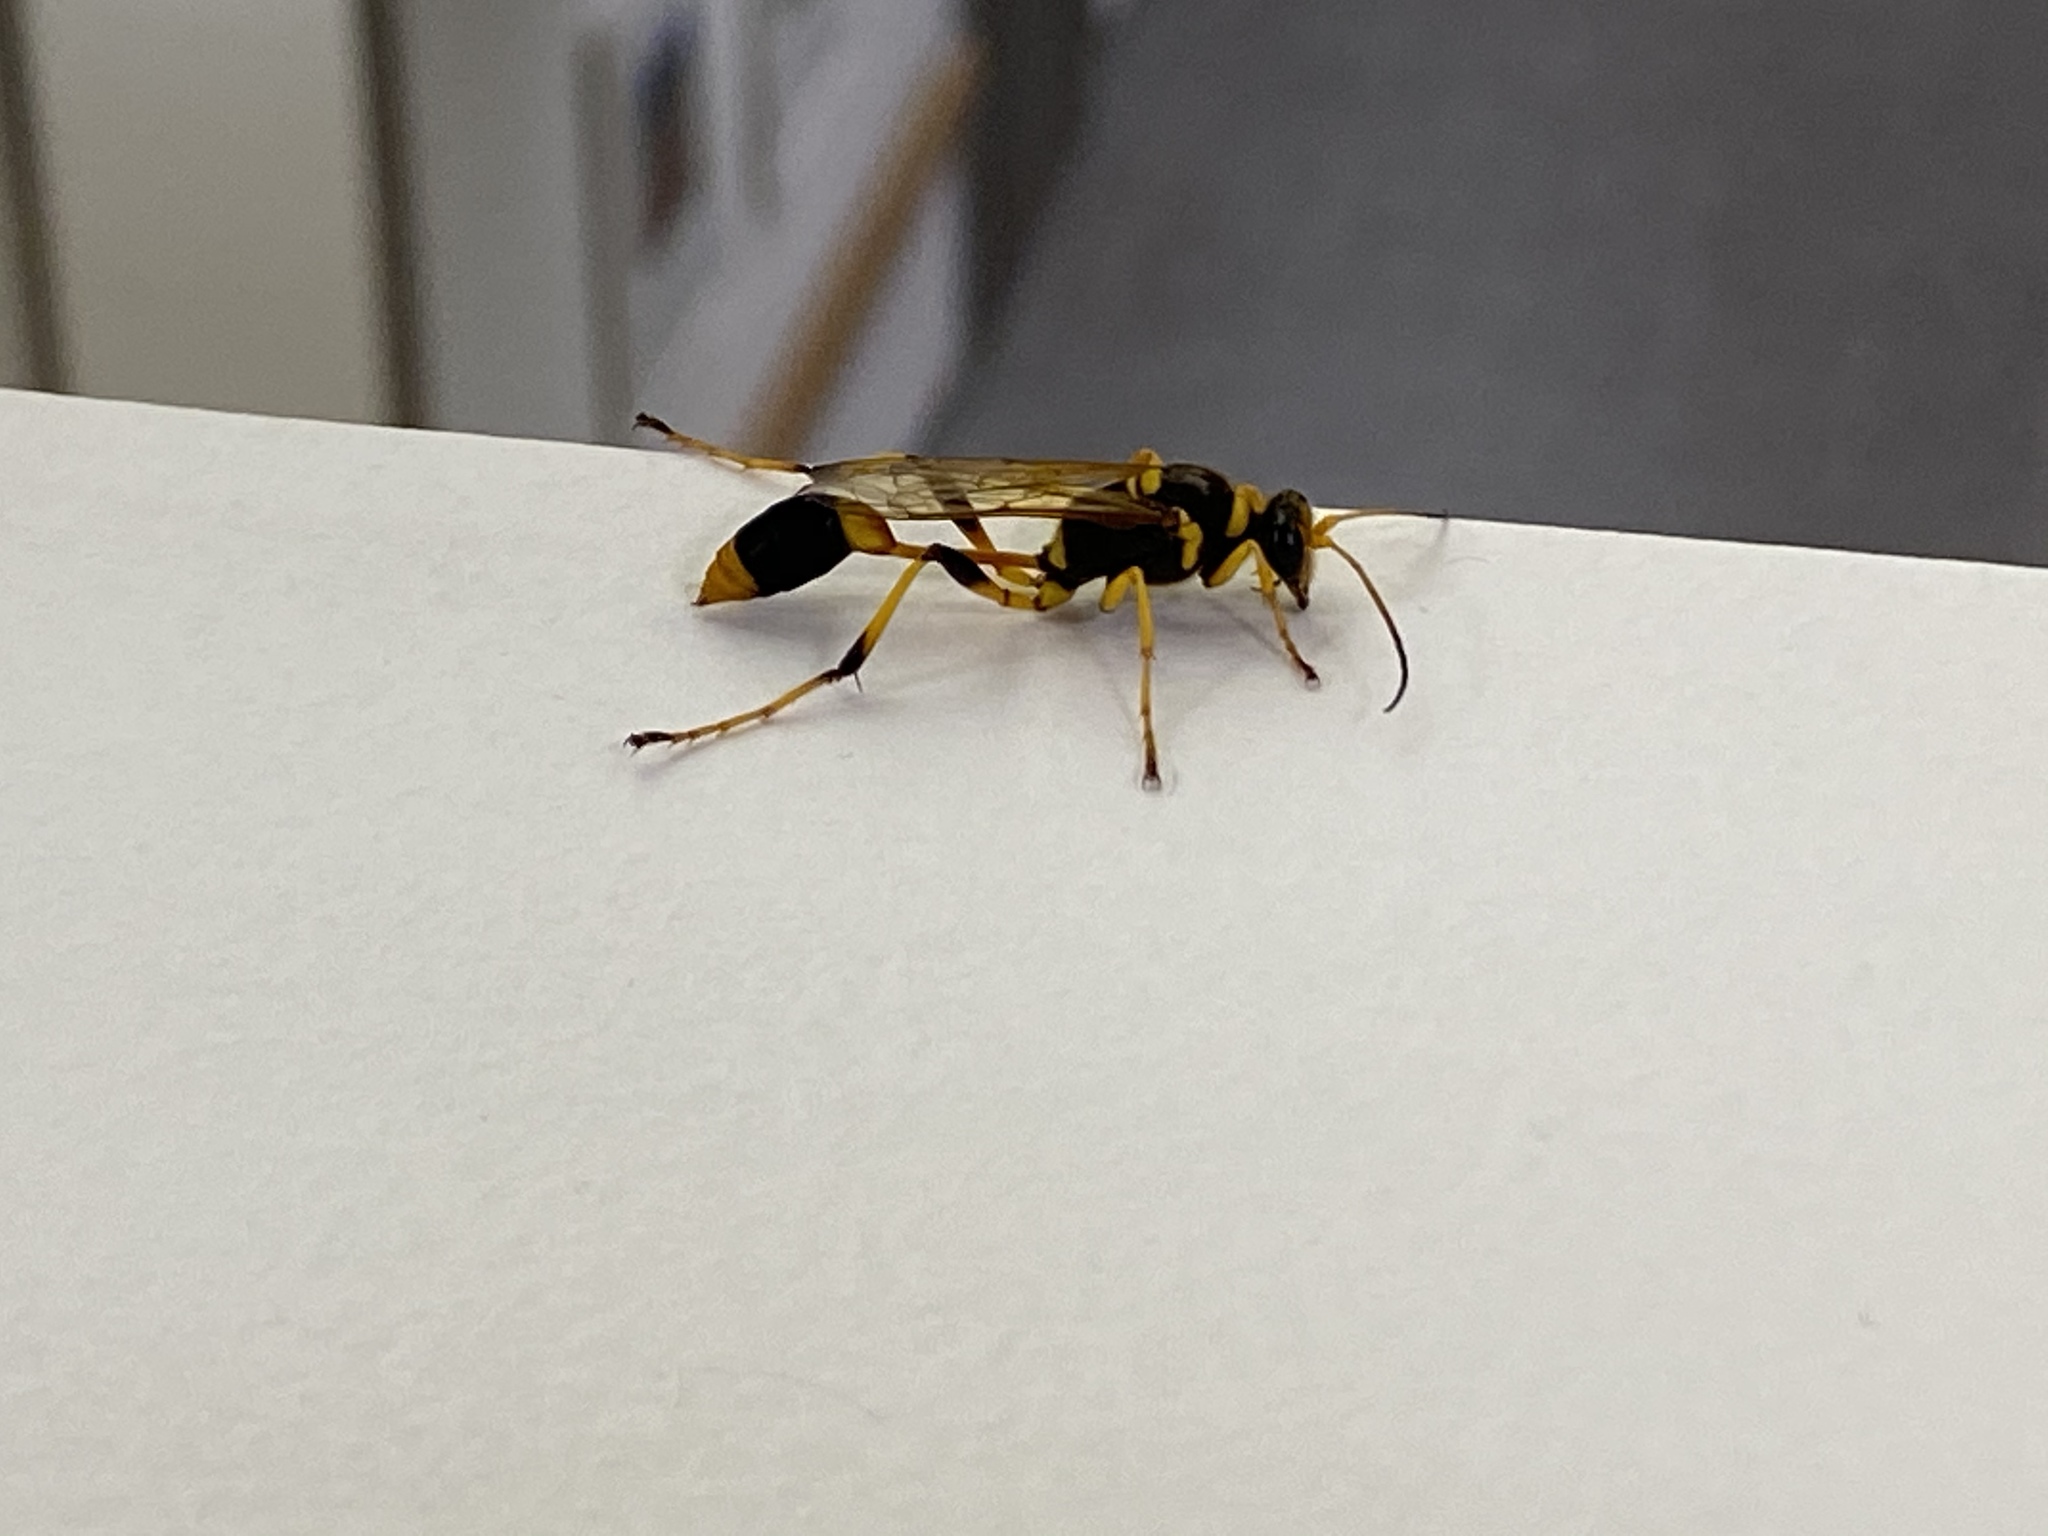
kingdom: Animalia
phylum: Arthropoda
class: Insecta
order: Hymenoptera
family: Sphecidae
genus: Sceliphron
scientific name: Sceliphron laetum
